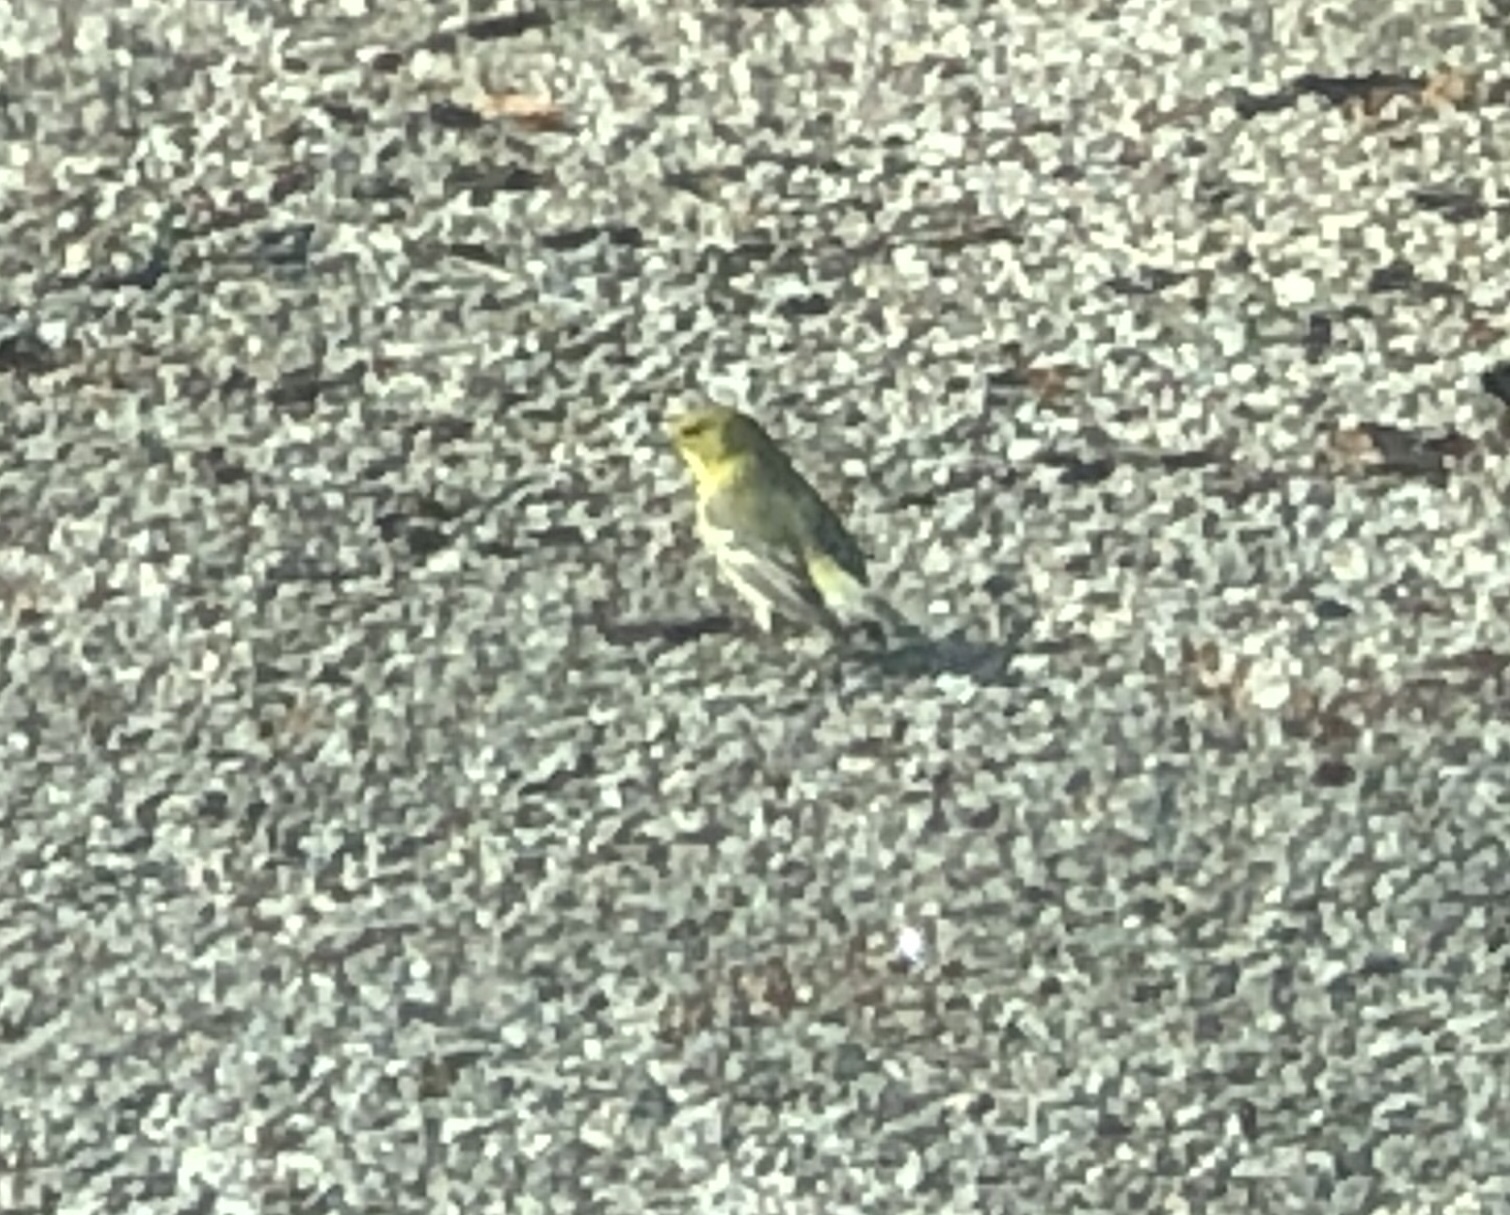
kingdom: Animalia
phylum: Chordata
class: Aves
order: Passeriformes
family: Parulidae
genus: Setophaga
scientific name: Setophaga pinus
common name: Pine warbler
